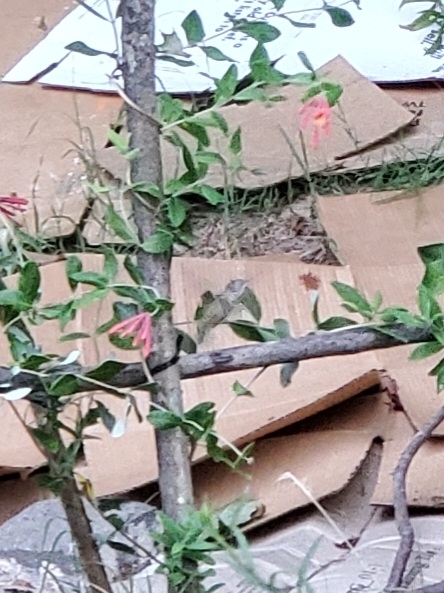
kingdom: Animalia
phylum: Chordata
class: Aves
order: Apodiformes
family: Trochilidae
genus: Archilochus
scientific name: Archilochus colubris
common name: Ruby-throated hummingbird
